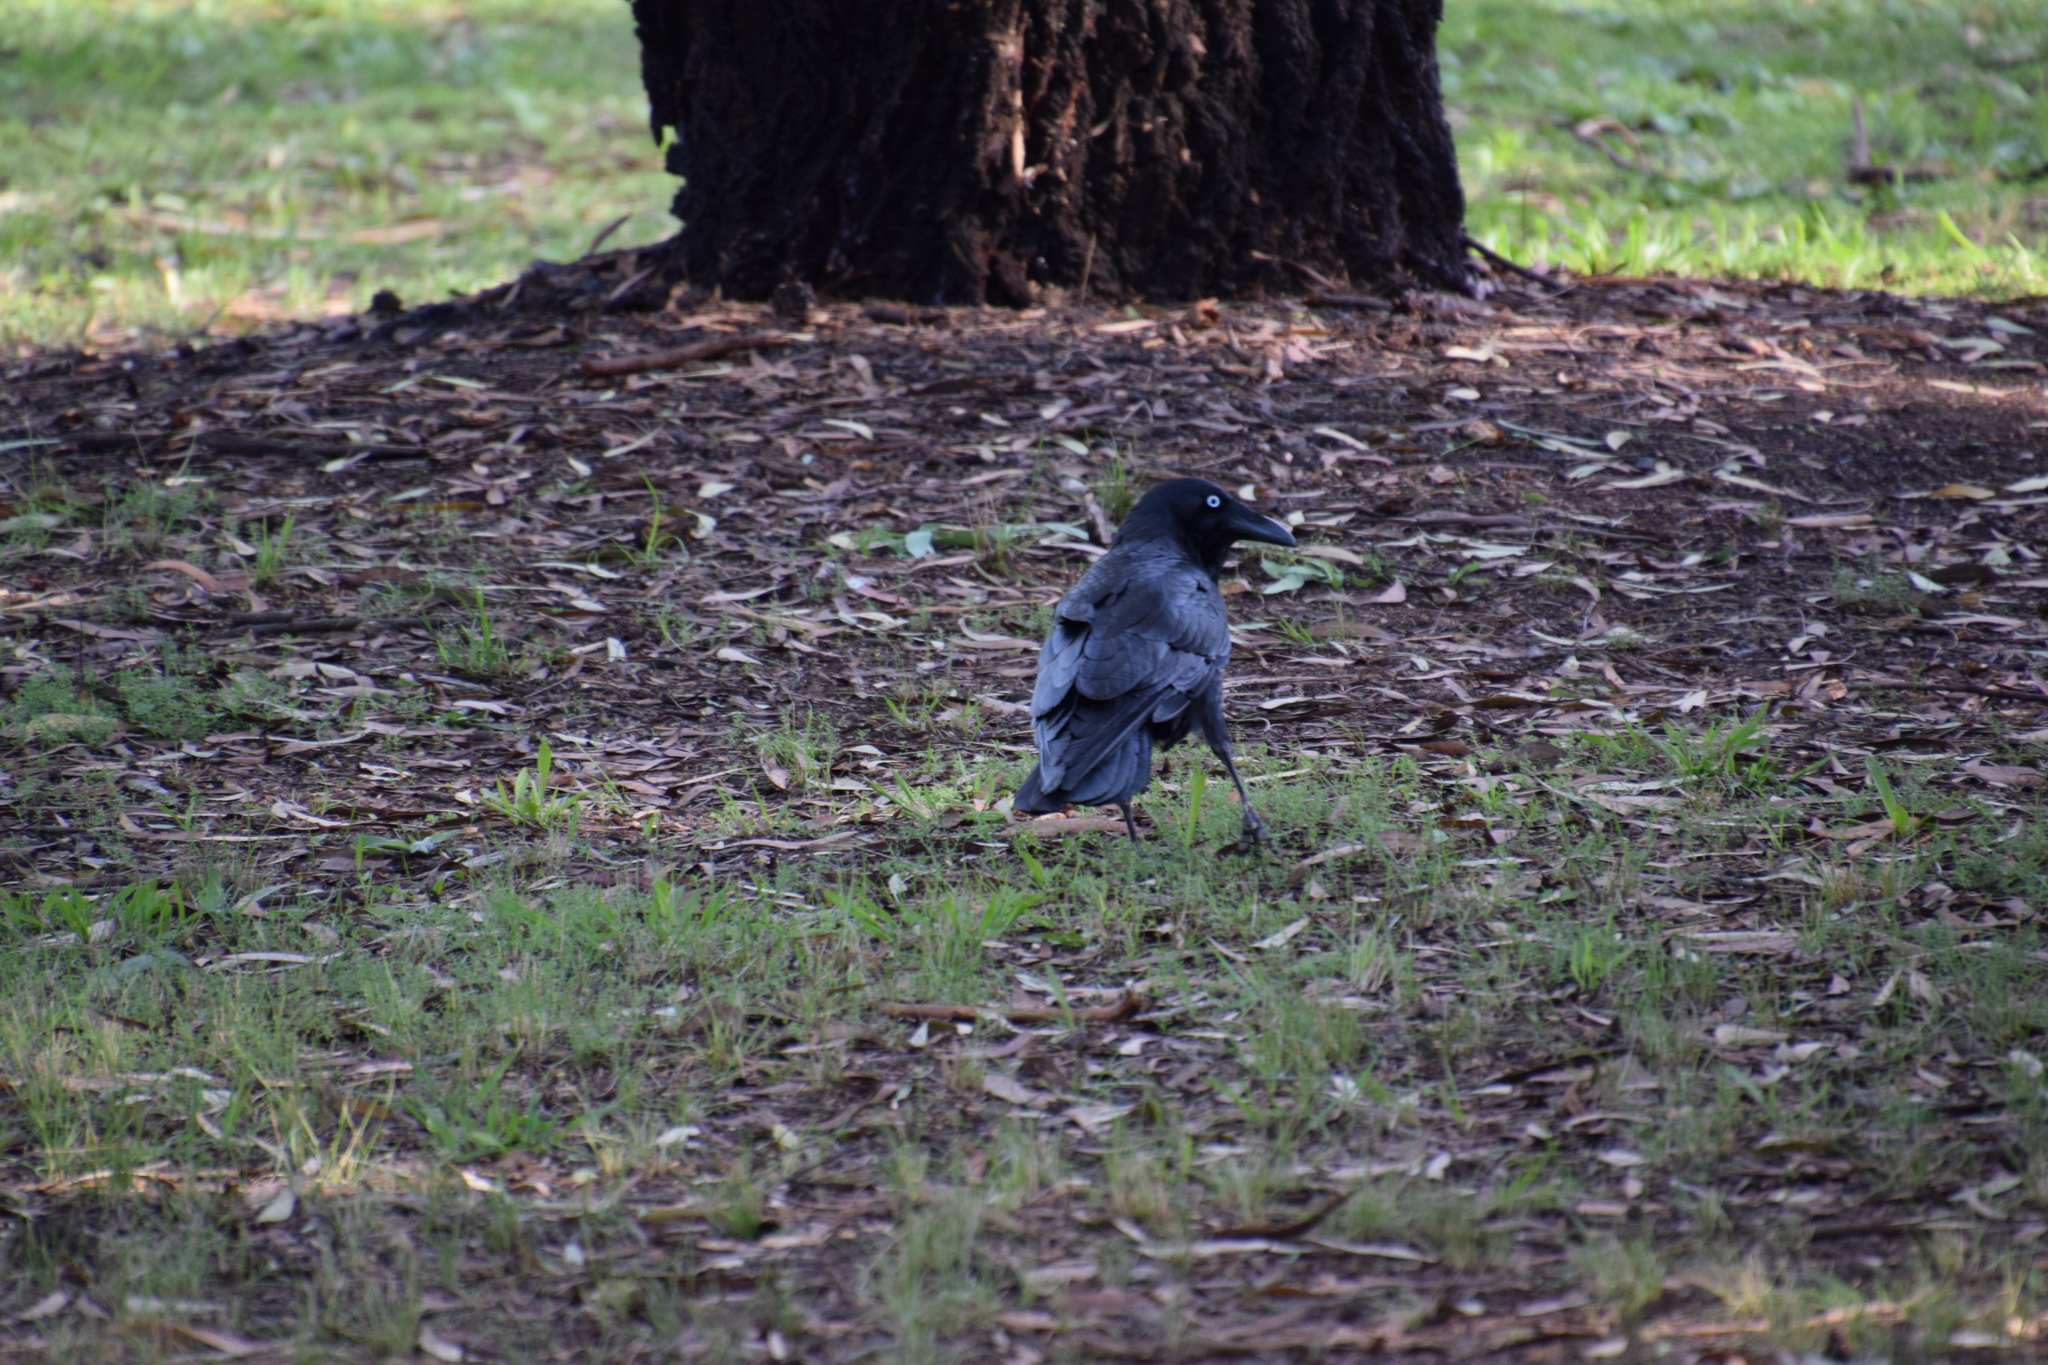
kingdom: Animalia
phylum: Chordata
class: Aves
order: Passeriformes
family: Corvidae
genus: Corvus
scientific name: Corvus coronoides
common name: Australian raven
